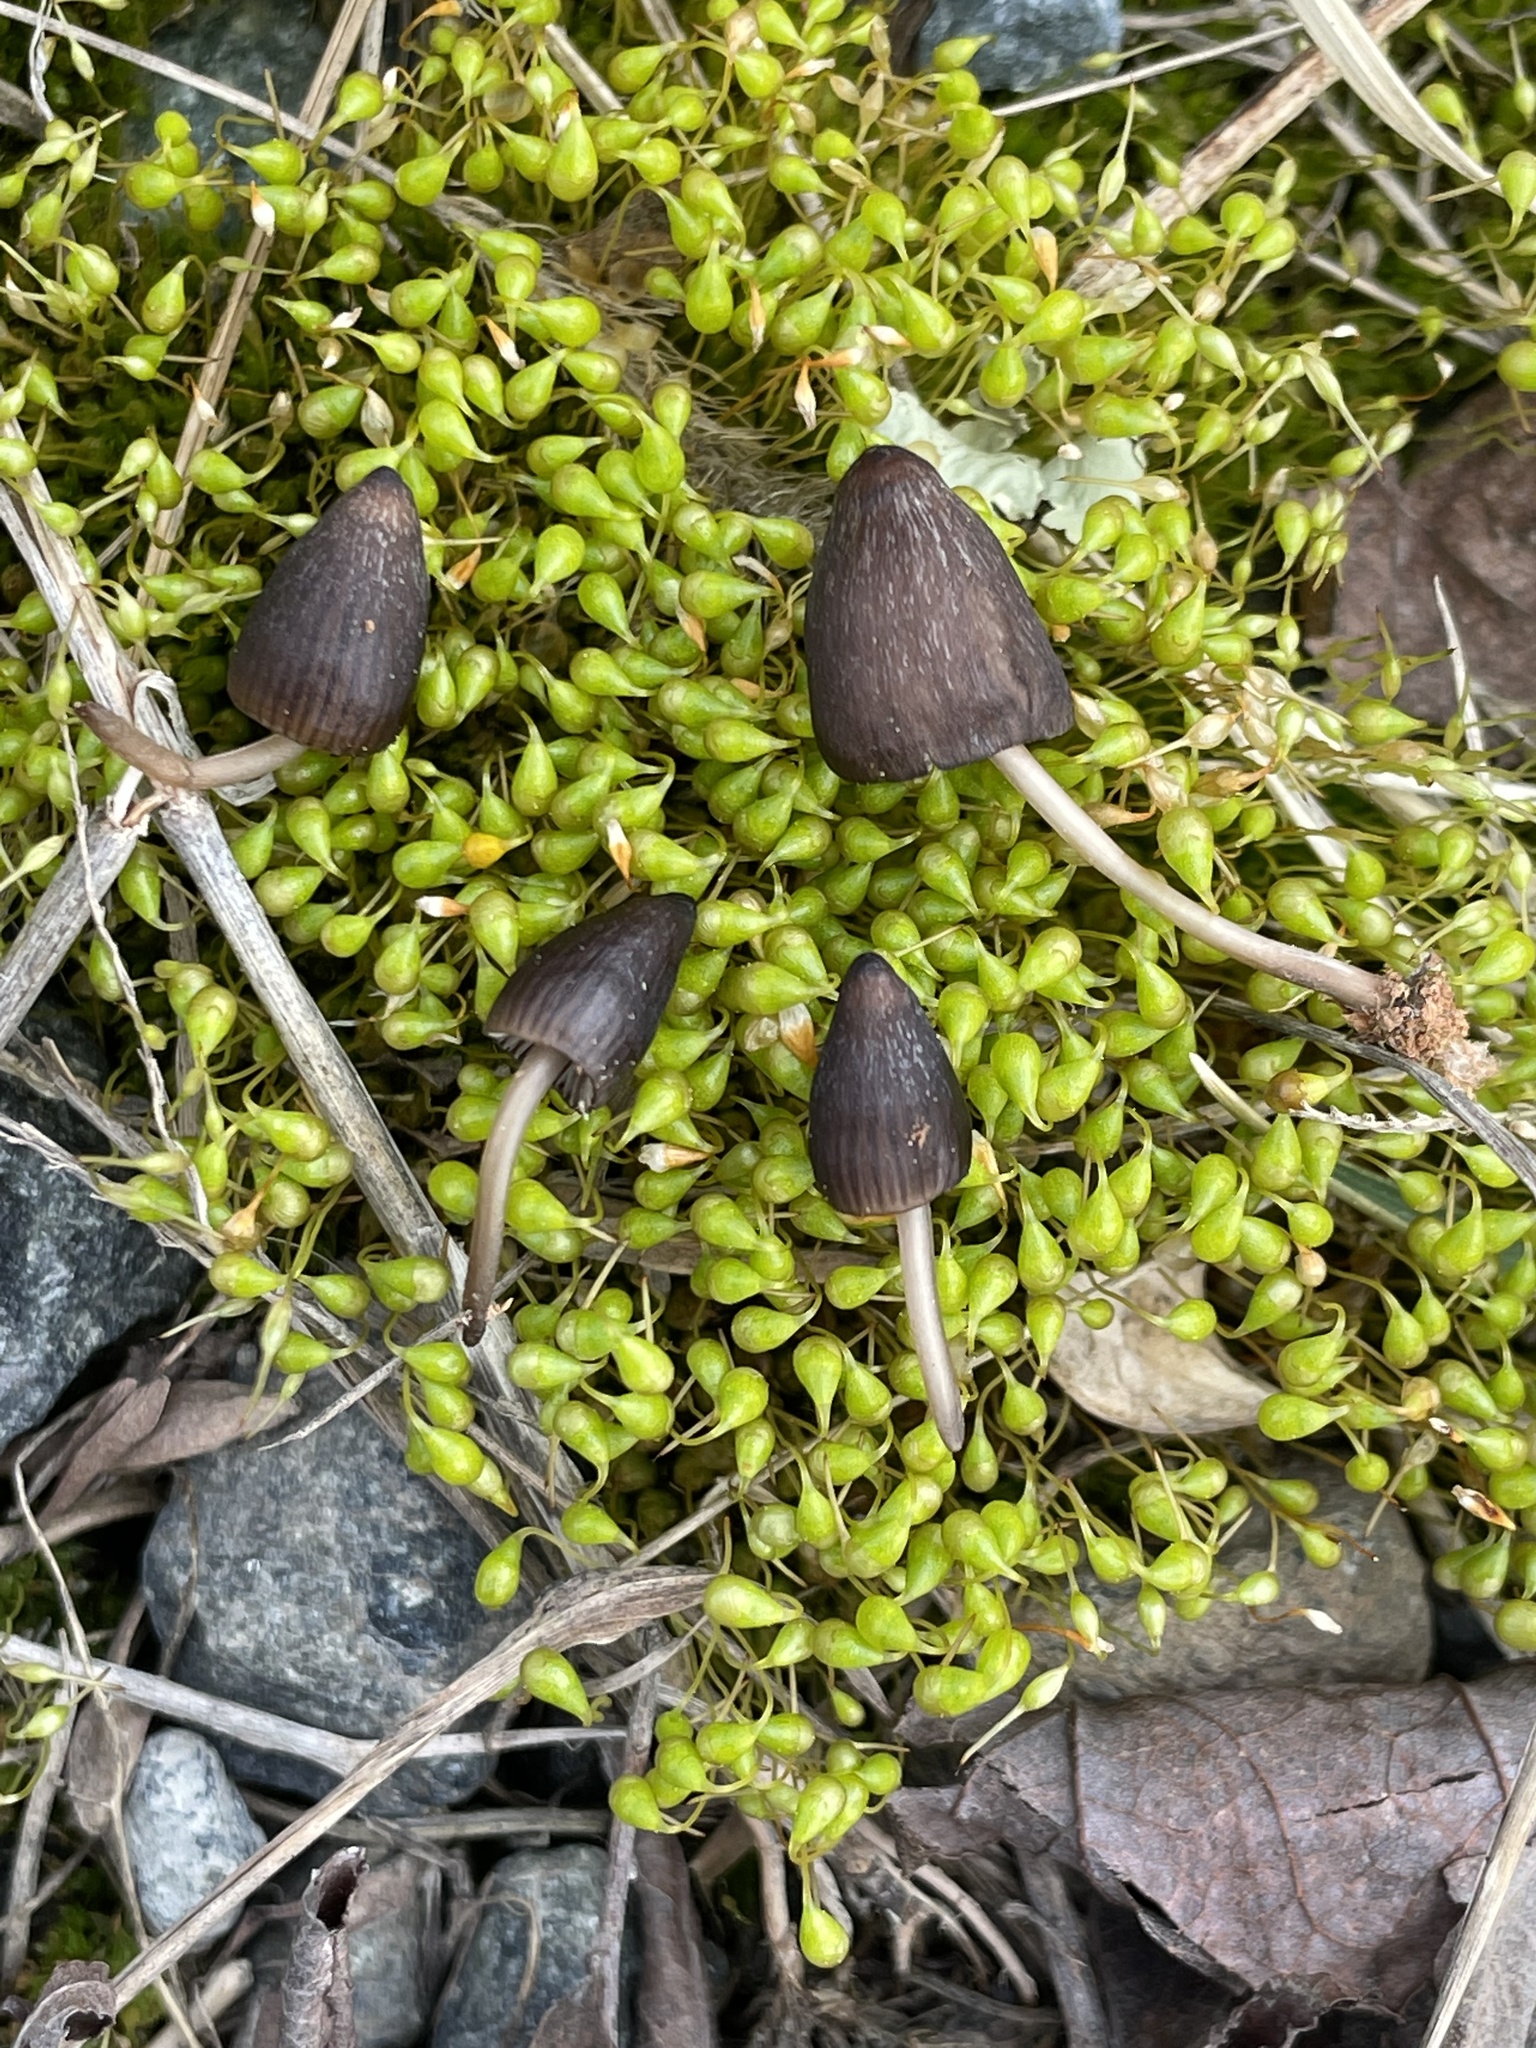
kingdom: Fungi
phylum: Basidiomycota
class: Agaricomycetes
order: Agaricales
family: Mycenaceae
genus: Mycena
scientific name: Mycena leptocephala
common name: Nitrous bonnet
